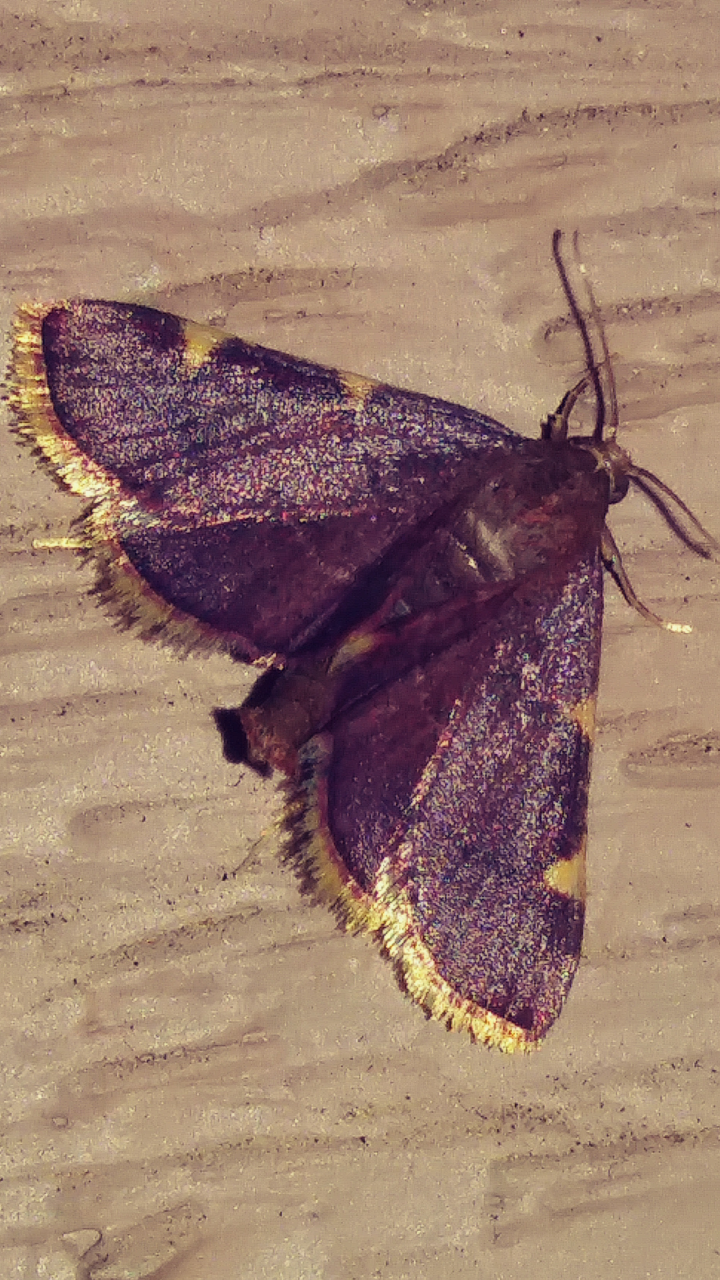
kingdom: Animalia
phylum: Arthropoda
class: Insecta
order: Lepidoptera
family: Pyralidae
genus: Hypsopygia
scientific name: Hypsopygia olinalis
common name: Yellow-fringed dolichomia moth
